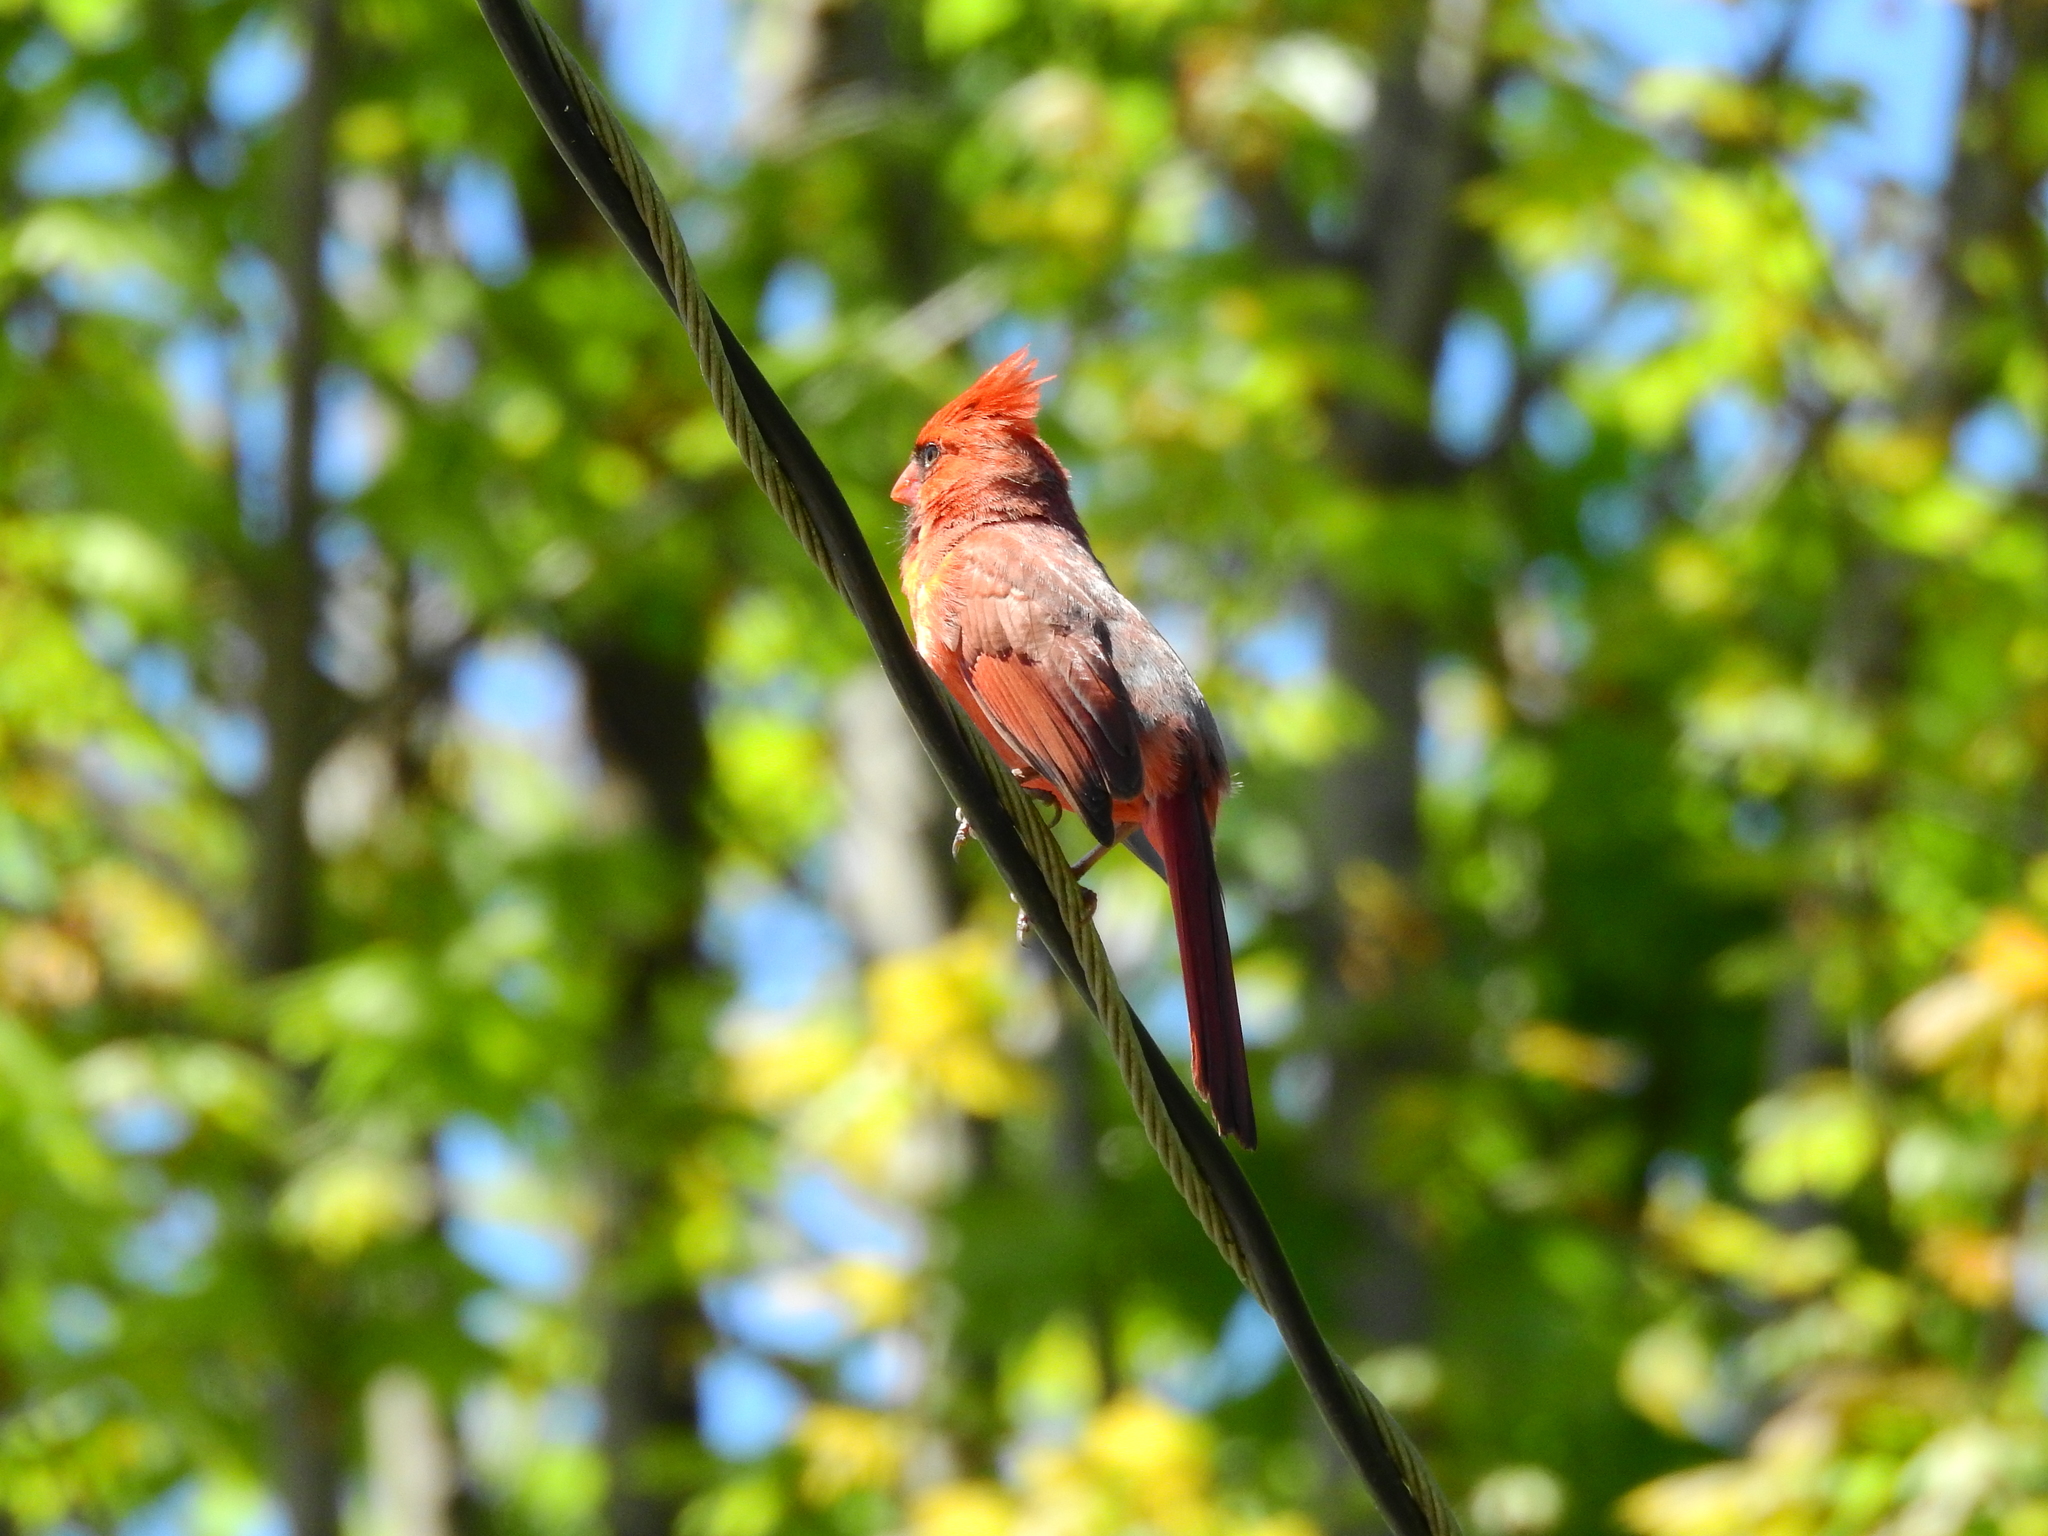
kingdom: Animalia
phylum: Chordata
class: Aves
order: Passeriformes
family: Cardinalidae
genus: Cardinalis
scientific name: Cardinalis cardinalis
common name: Northern cardinal
